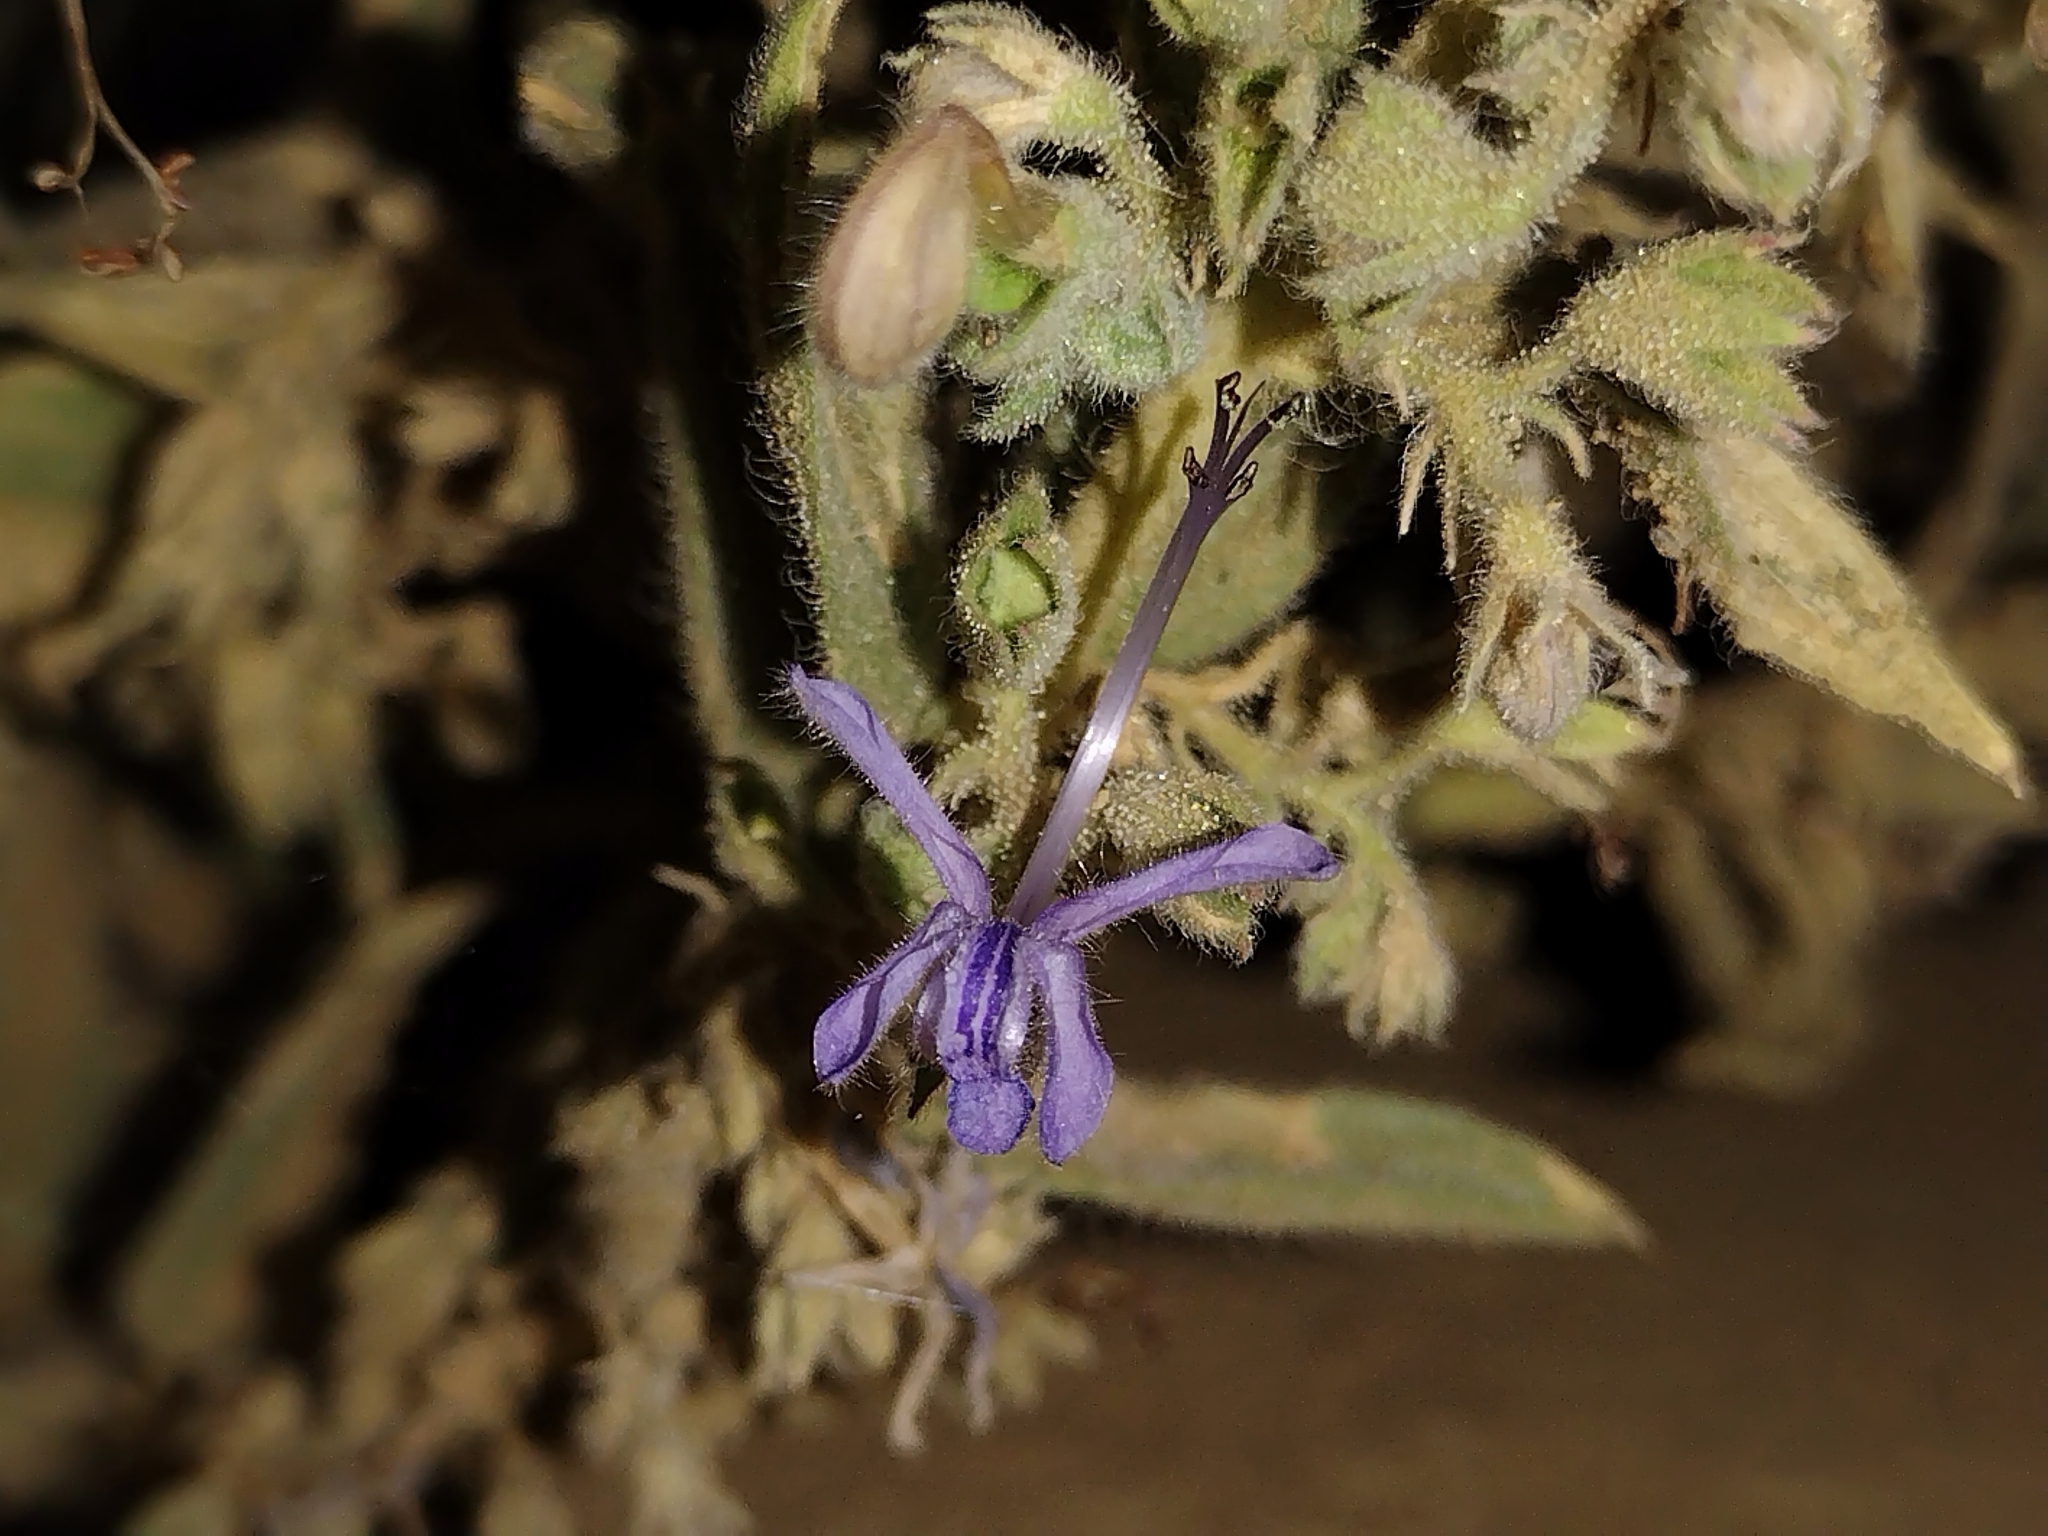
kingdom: Plantae
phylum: Tracheophyta
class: Magnoliopsida
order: Lamiales
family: Lamiaceae
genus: Trichostema
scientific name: Trichostema lanceolatum
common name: Vinegar-weed
